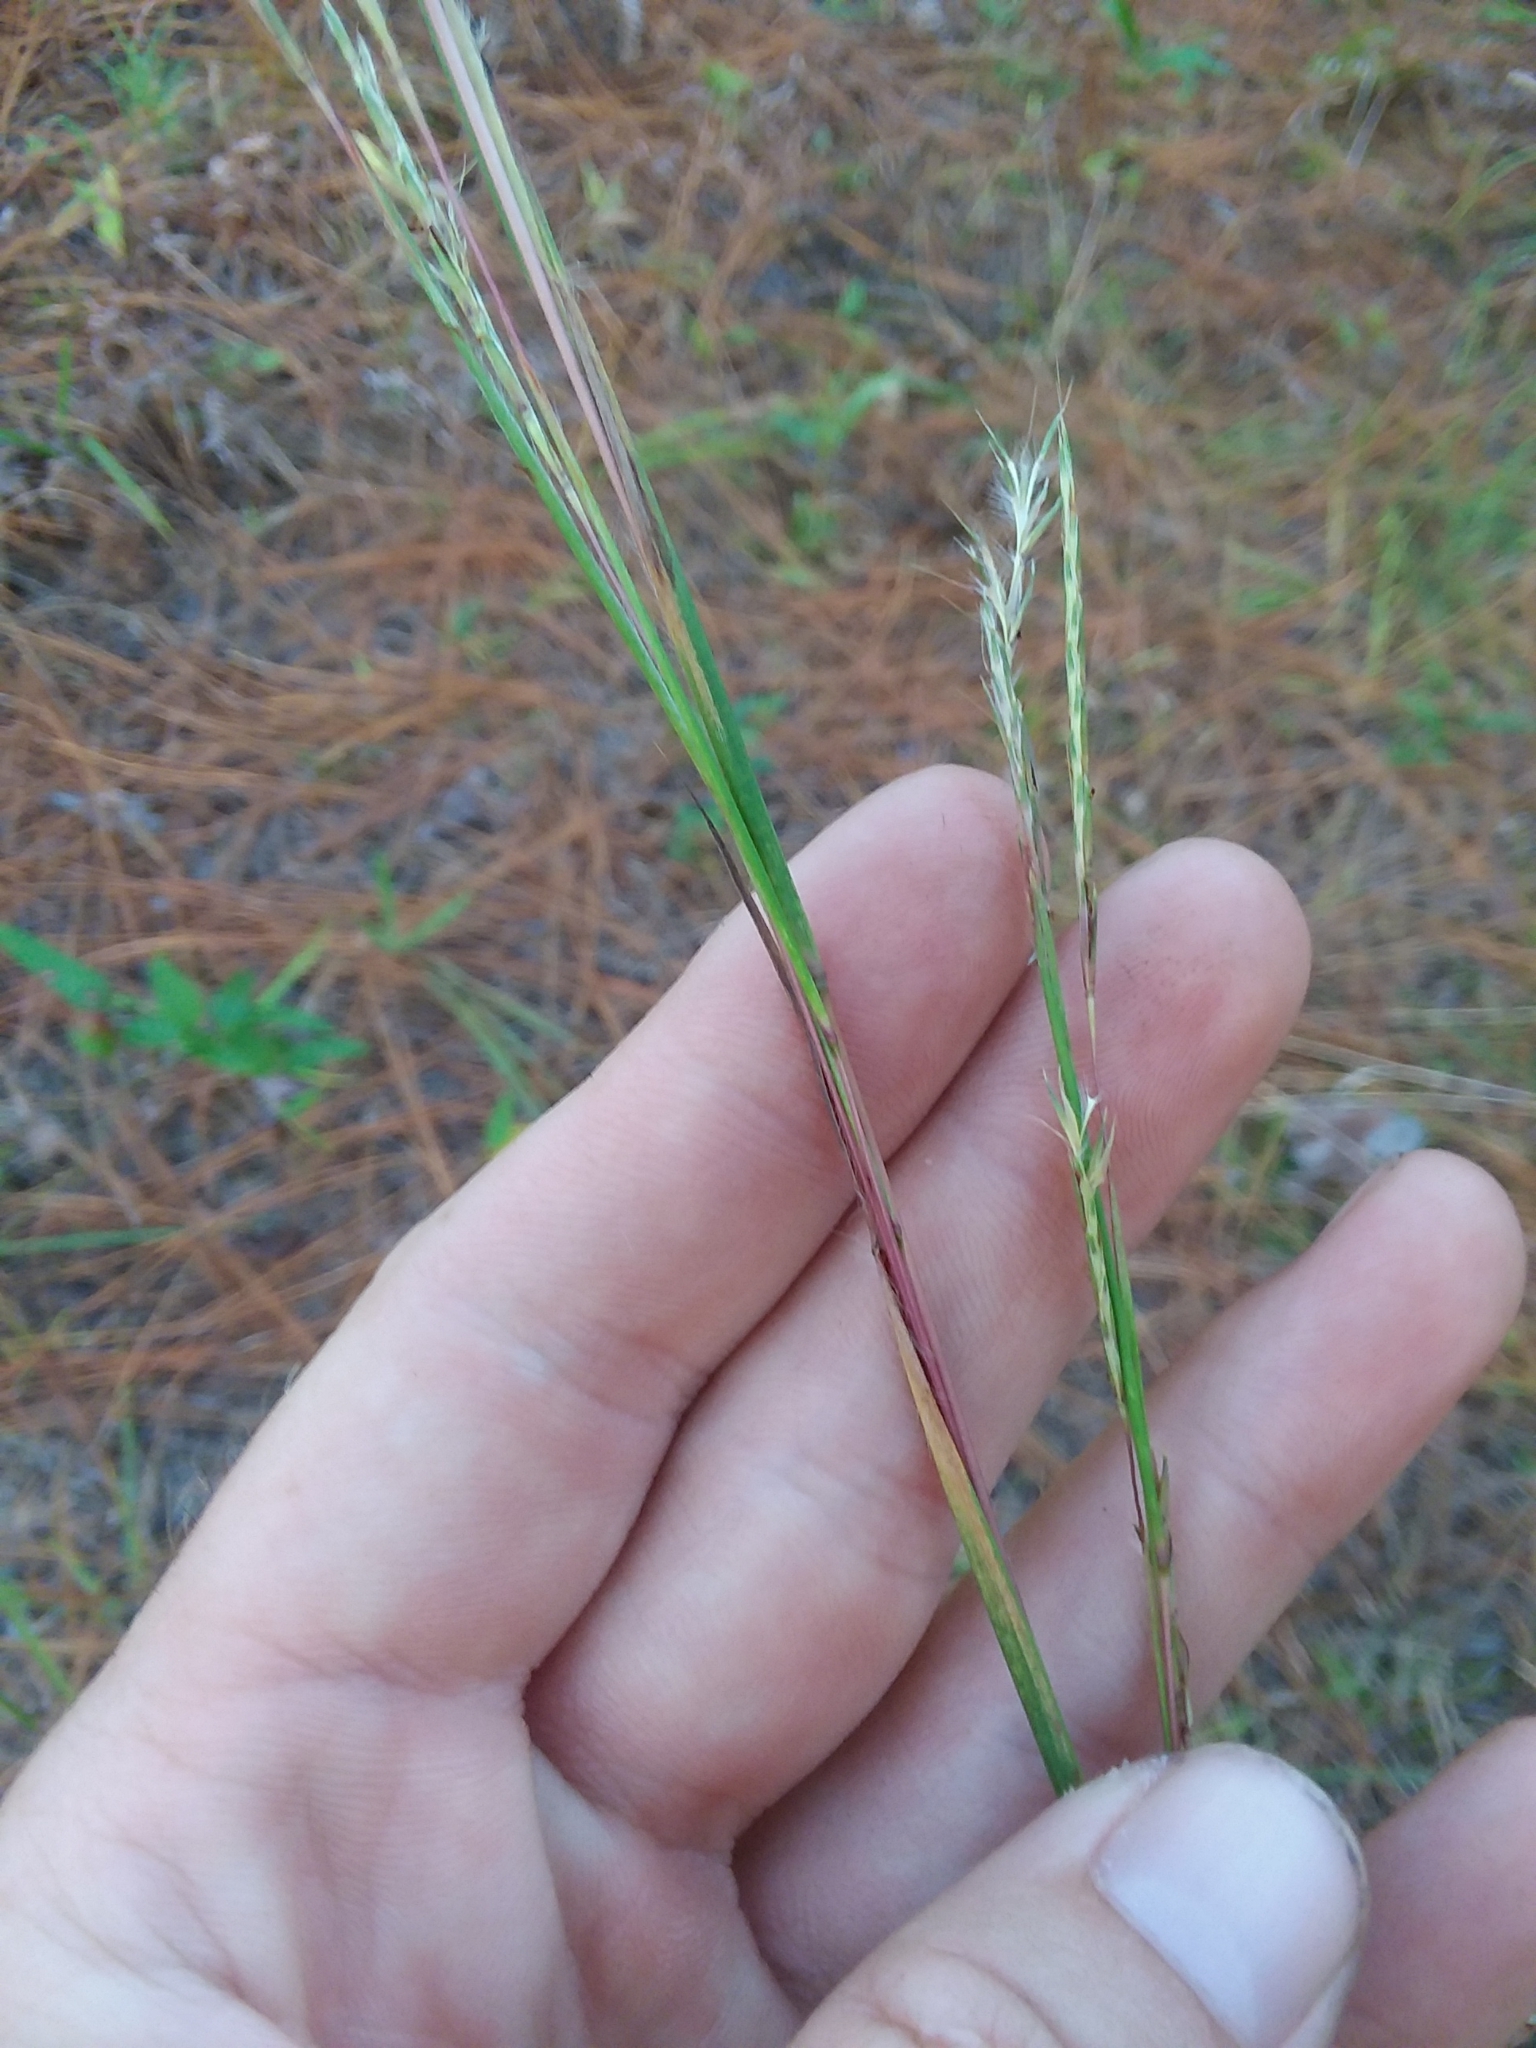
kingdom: Plantae
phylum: Tracheophyta
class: Liliopsida
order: Poales
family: Poaceae
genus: Schizachyrium
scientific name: Schizachyrium scoparium
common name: Little bluestem
